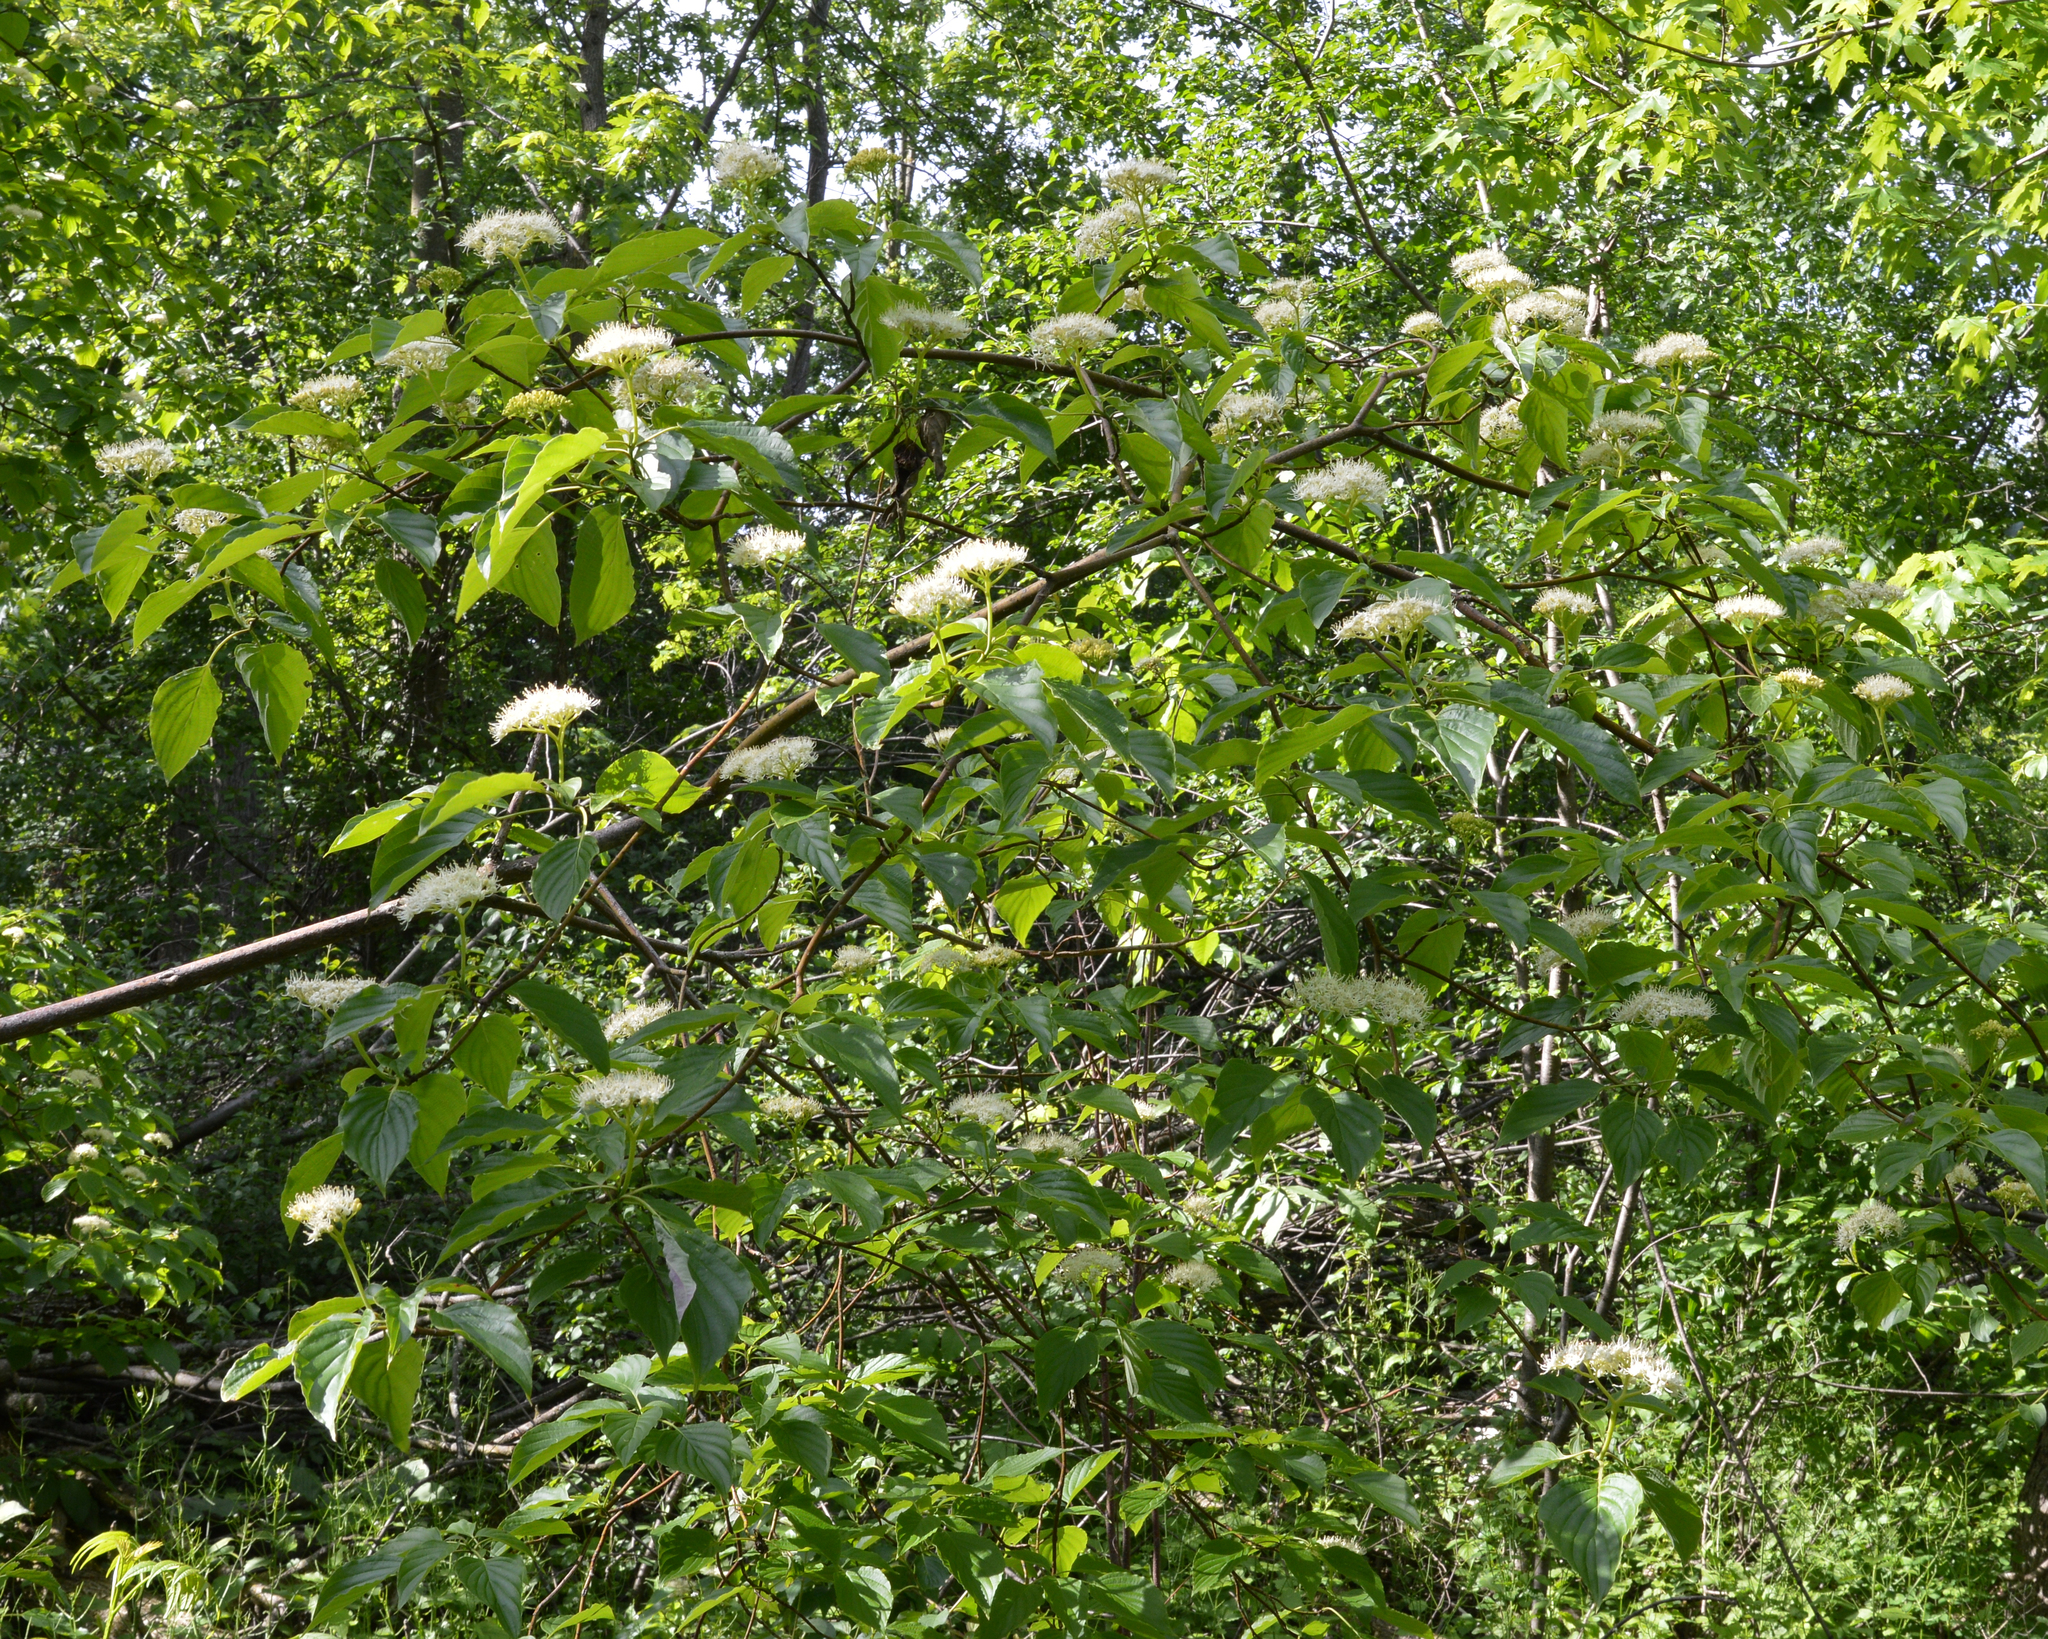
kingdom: Plantae
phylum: Tracheophyta
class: Magnoliopsida
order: Cornales
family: Cornaceae
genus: Cornus
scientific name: Cornus alternifolia
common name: Pagoda dogwood
